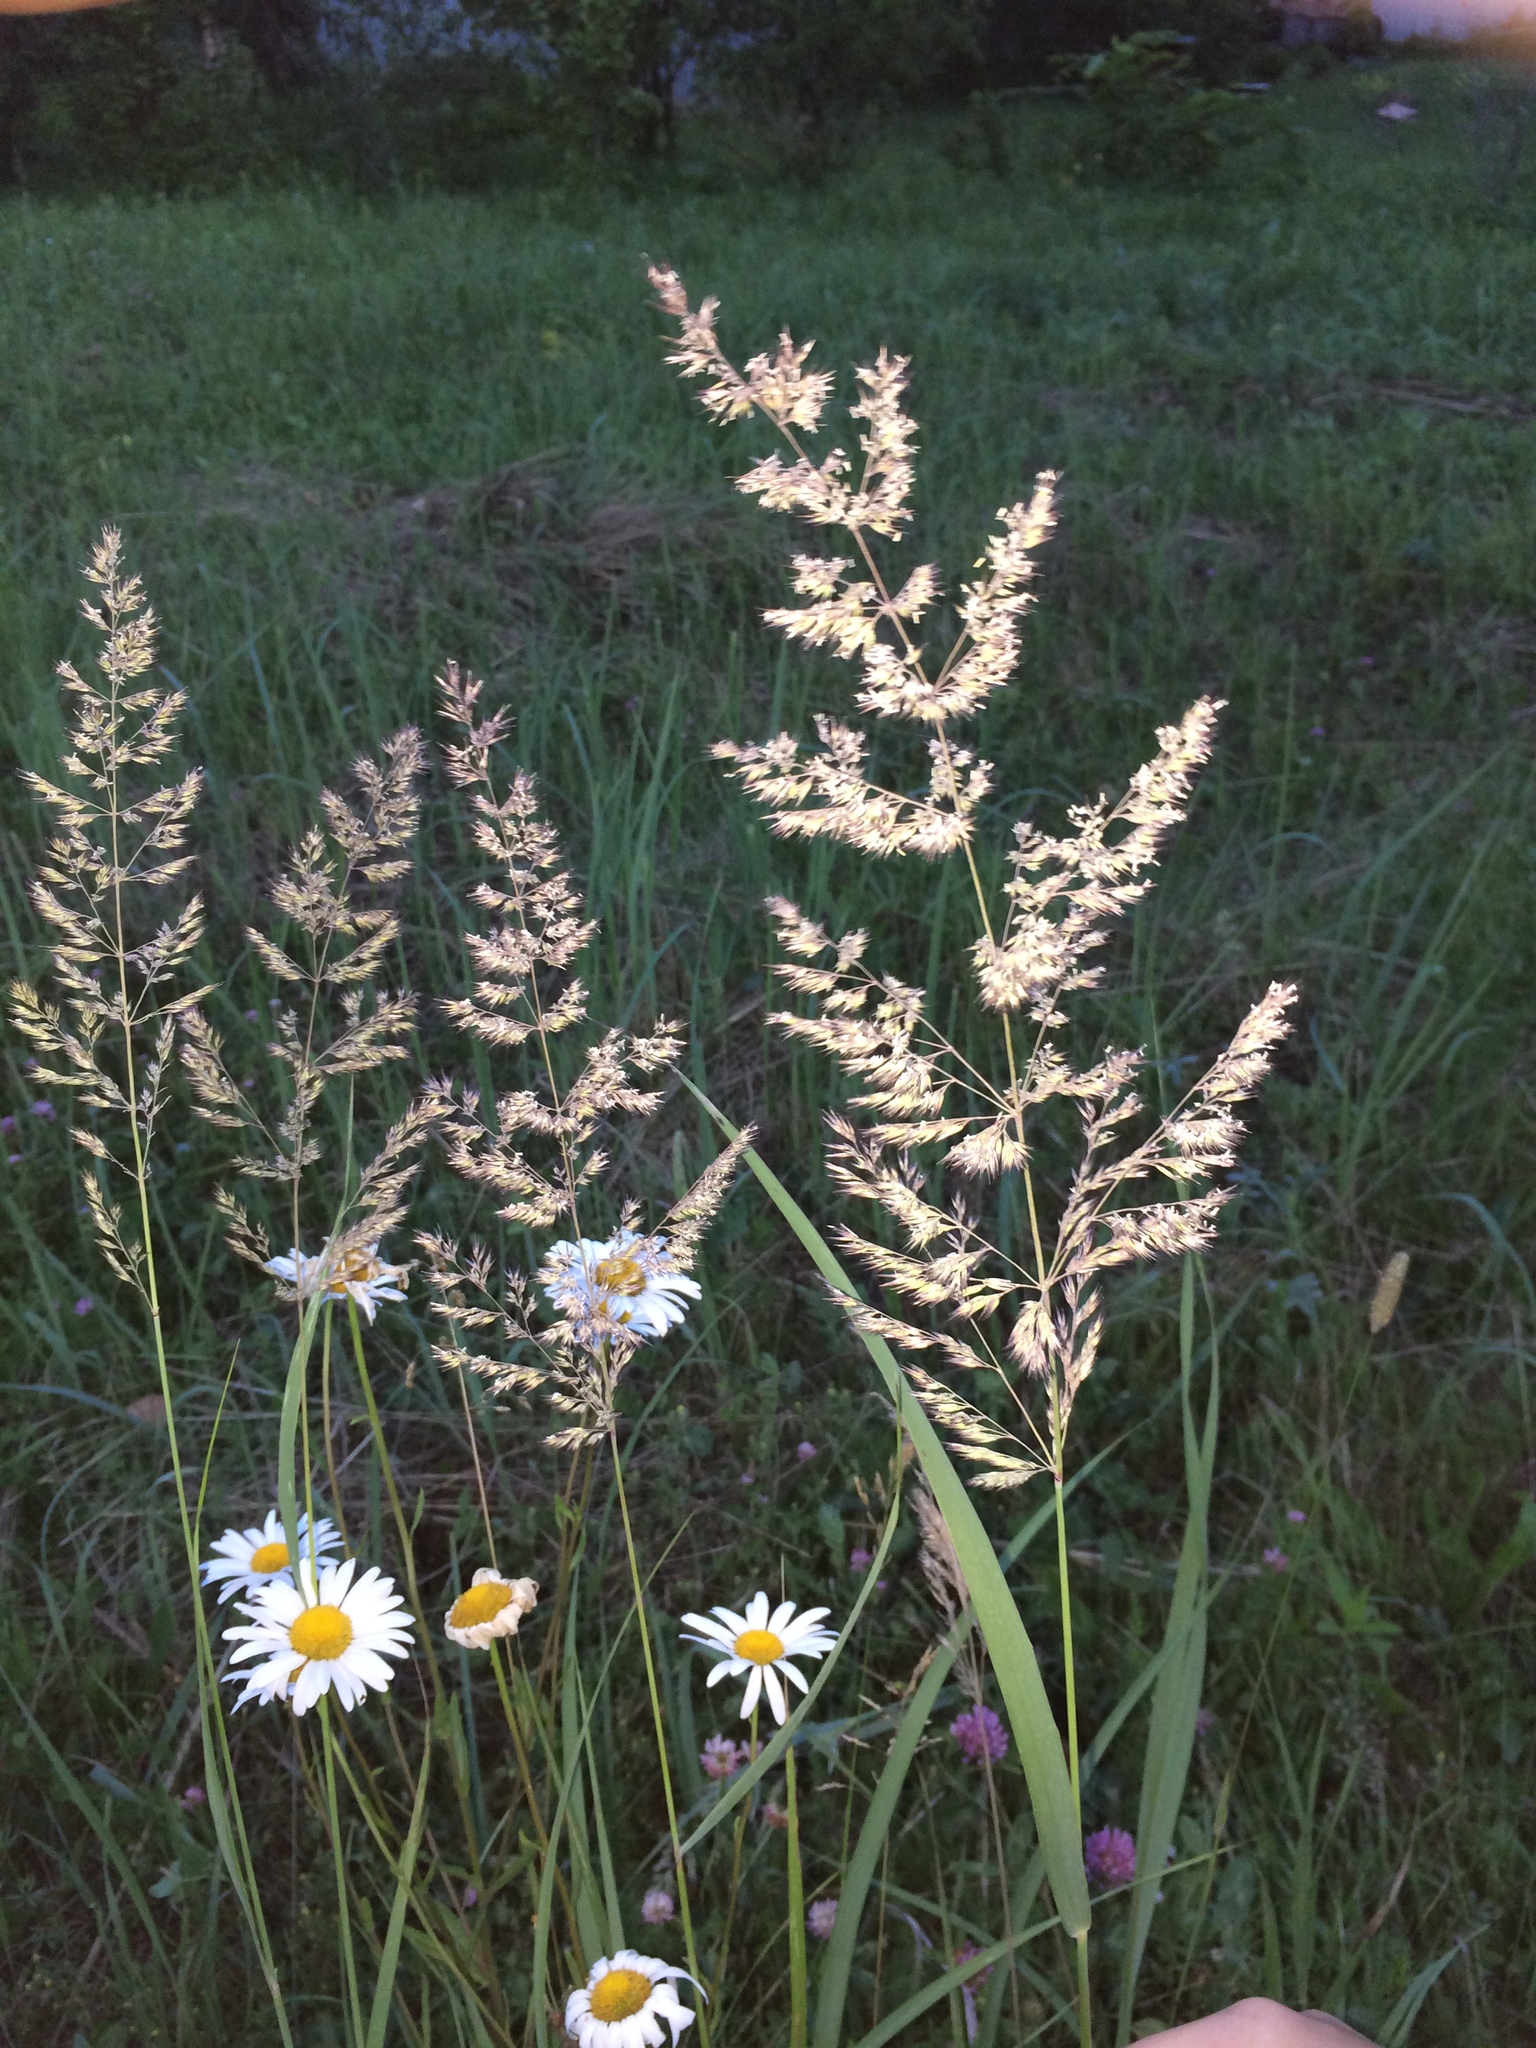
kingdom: Plantae
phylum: Tracheophyta
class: Liliopsida
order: Poales
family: Poaceae
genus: Calamagrostis
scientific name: Calamagrostis epigejos
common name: Wood small-reed
